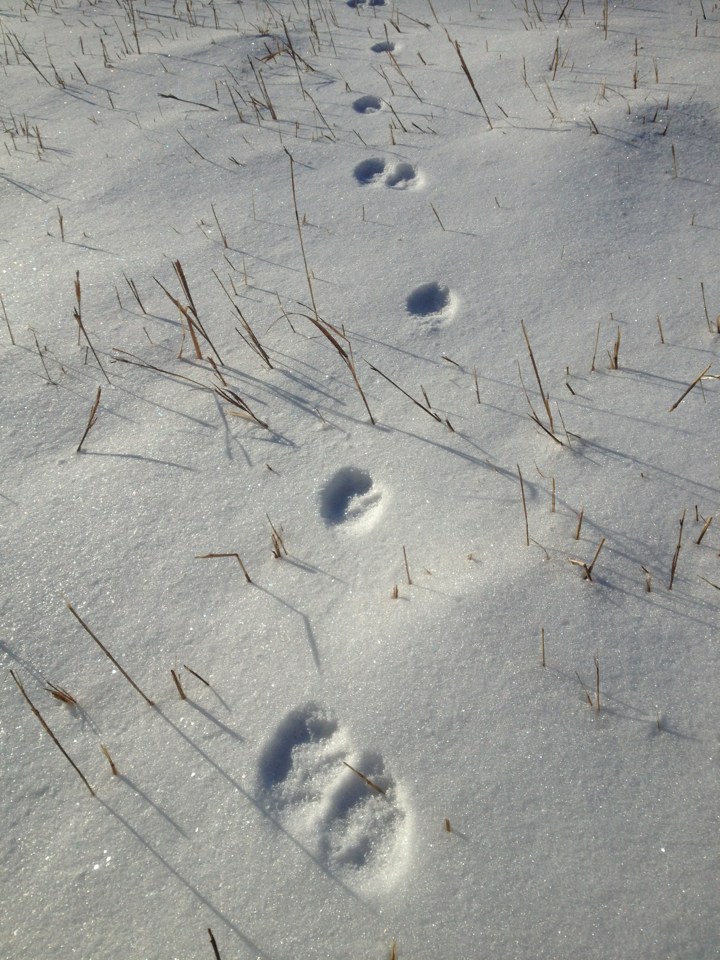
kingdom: Animalia
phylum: Chordata
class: Mammalia
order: Carnivora
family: Canidae
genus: Vulpes
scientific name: Vulpes vulpes
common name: Red fox
